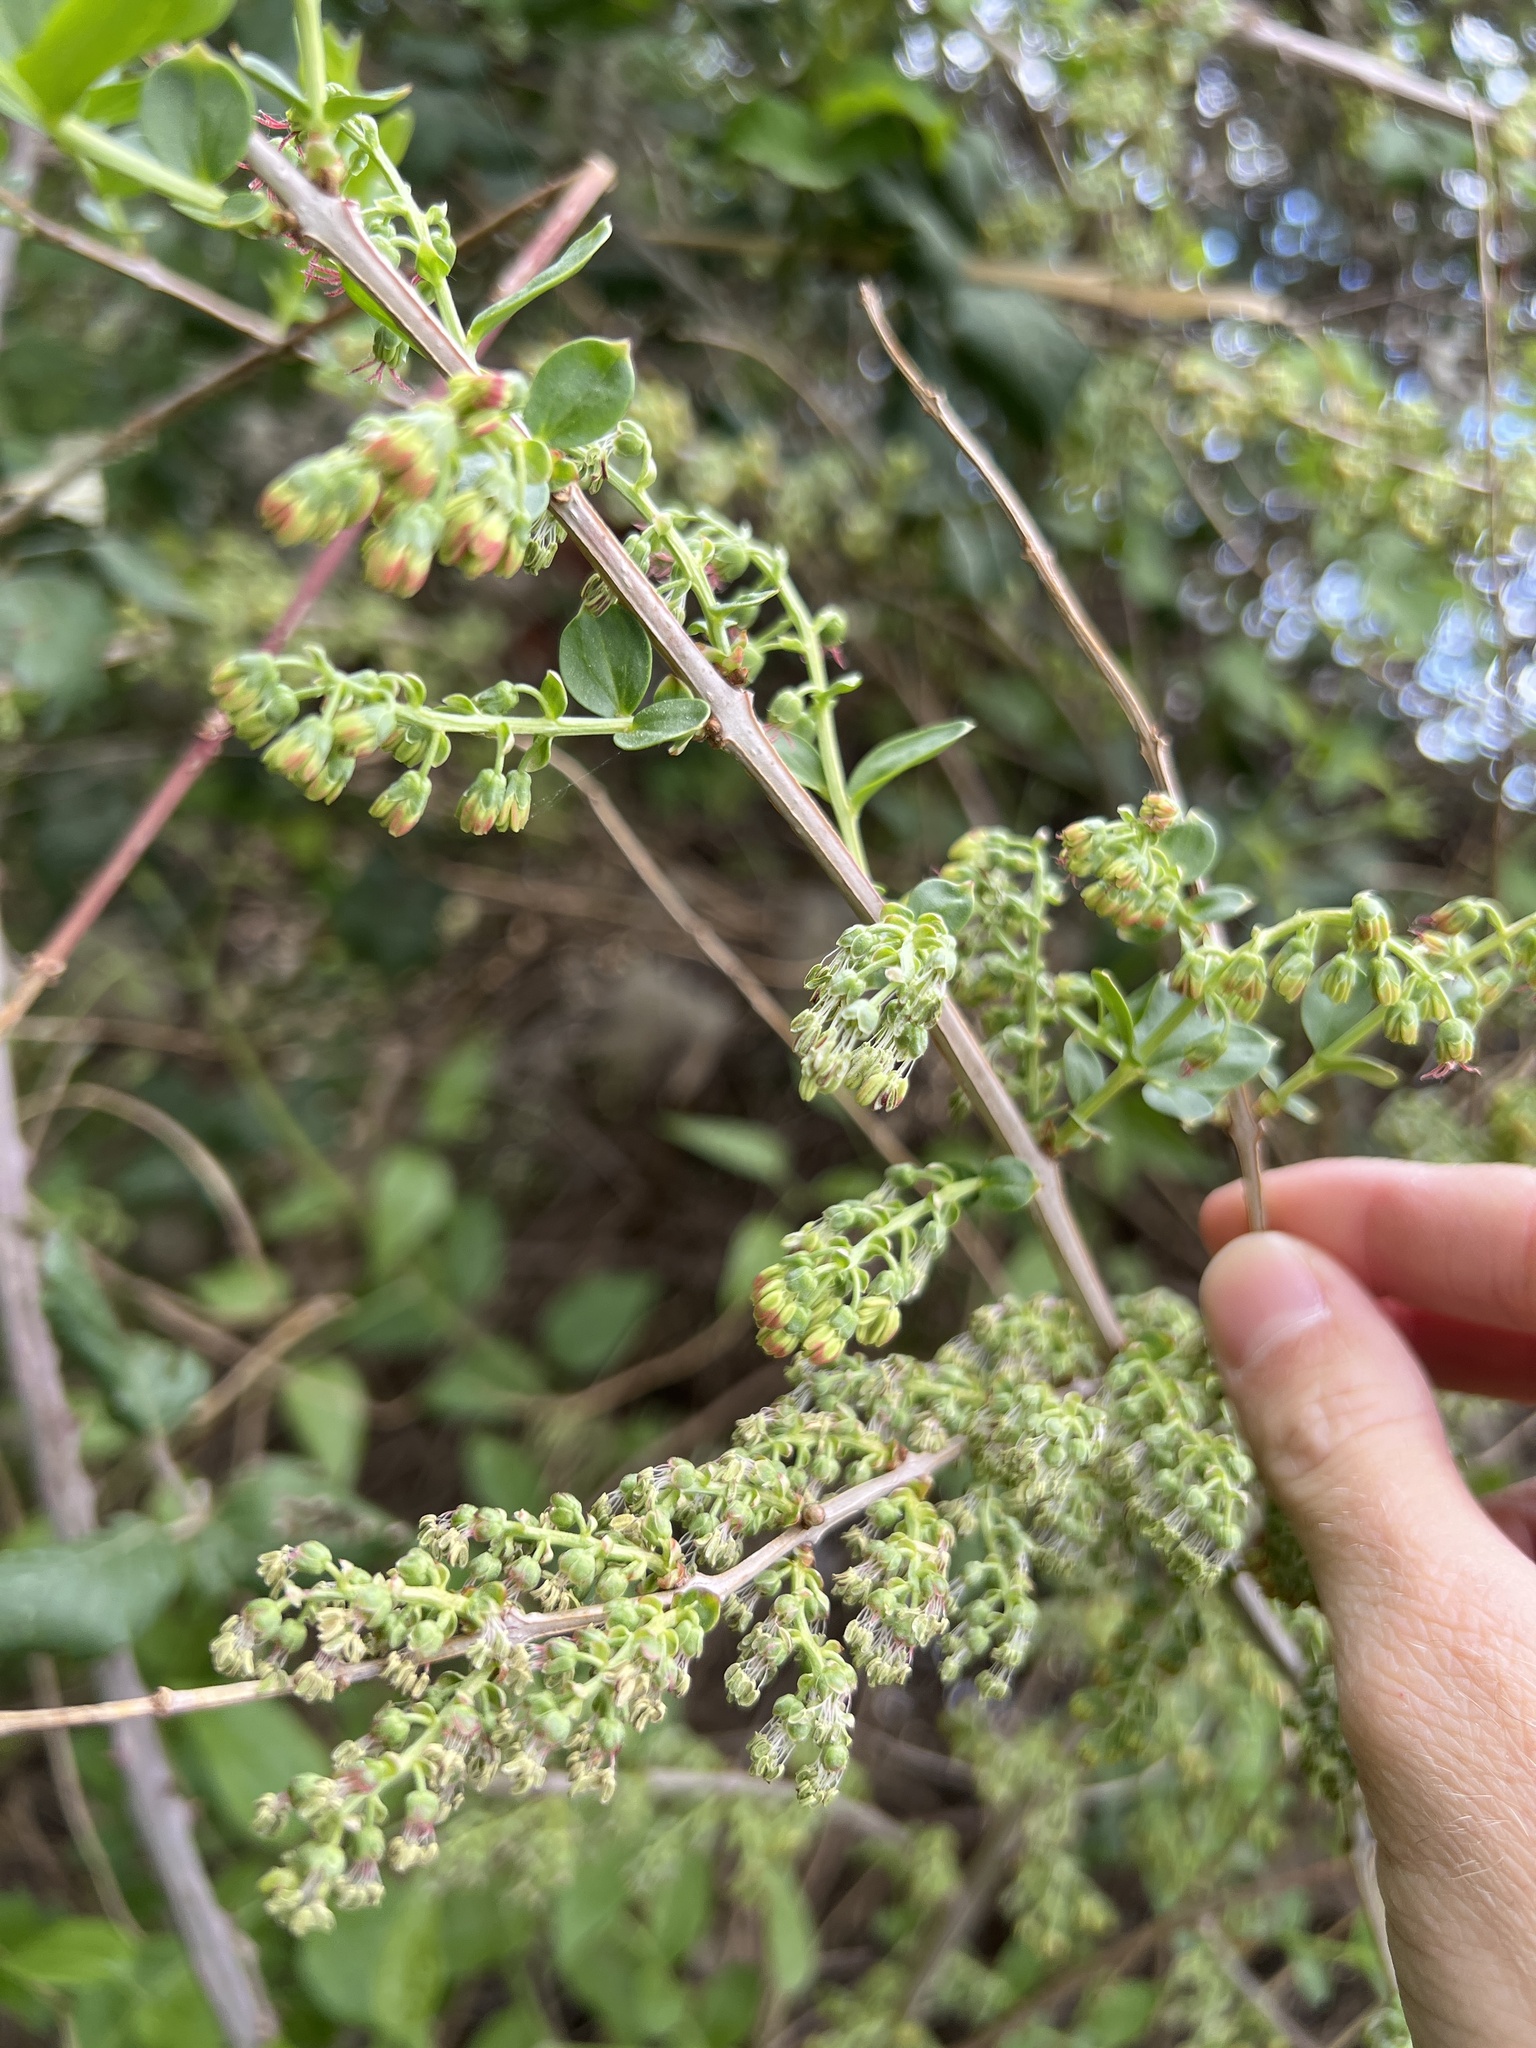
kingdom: Plantae
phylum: Tracheophyta
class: Magnoliopsida
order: Cucurbitales
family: Coriariaceae
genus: Coriaria
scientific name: Coriaria myrtifolia
